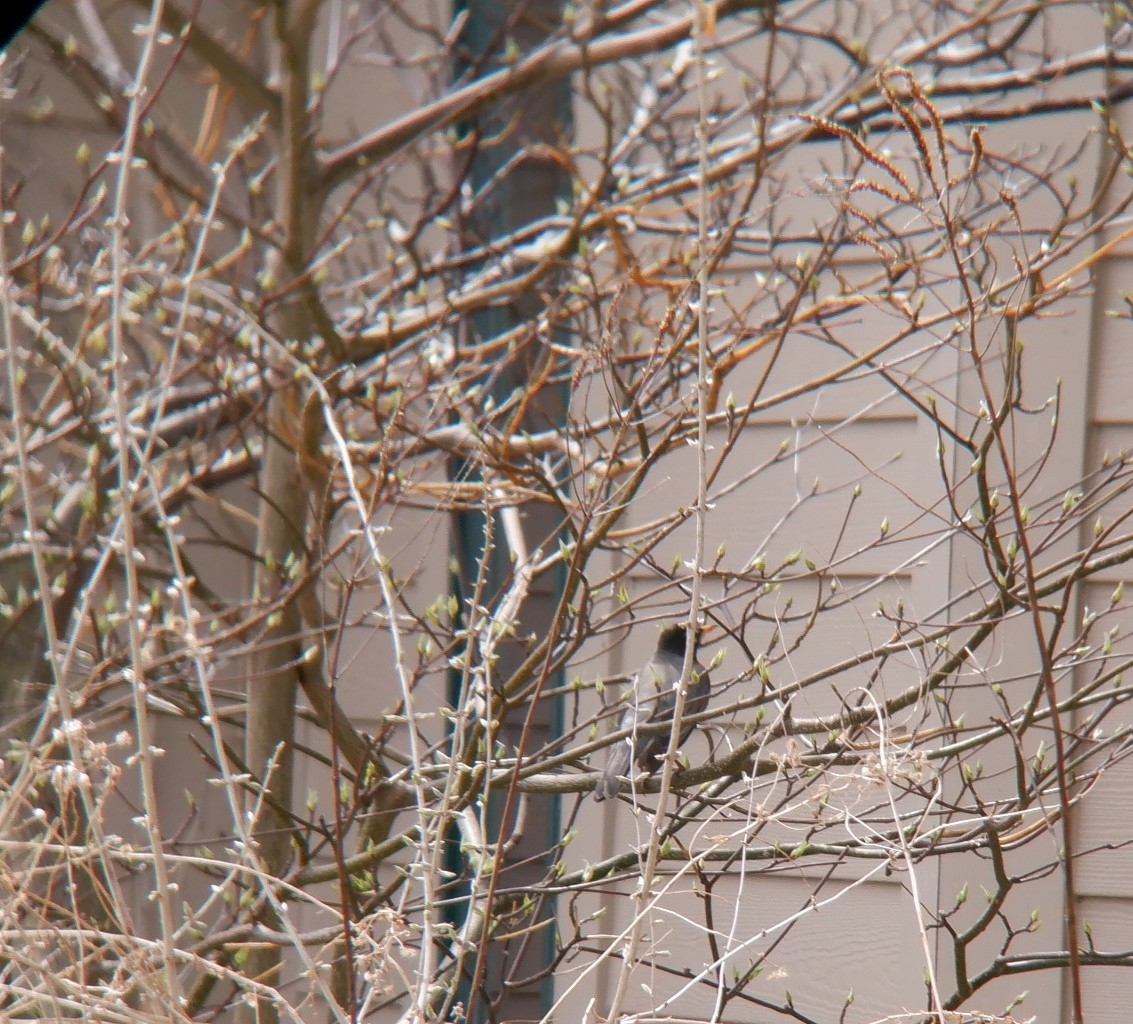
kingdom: Animalia
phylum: Chordata
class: Aves
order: Passeriformes
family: Turdidae
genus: Turdus
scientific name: Turdus migratorius
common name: American robin
